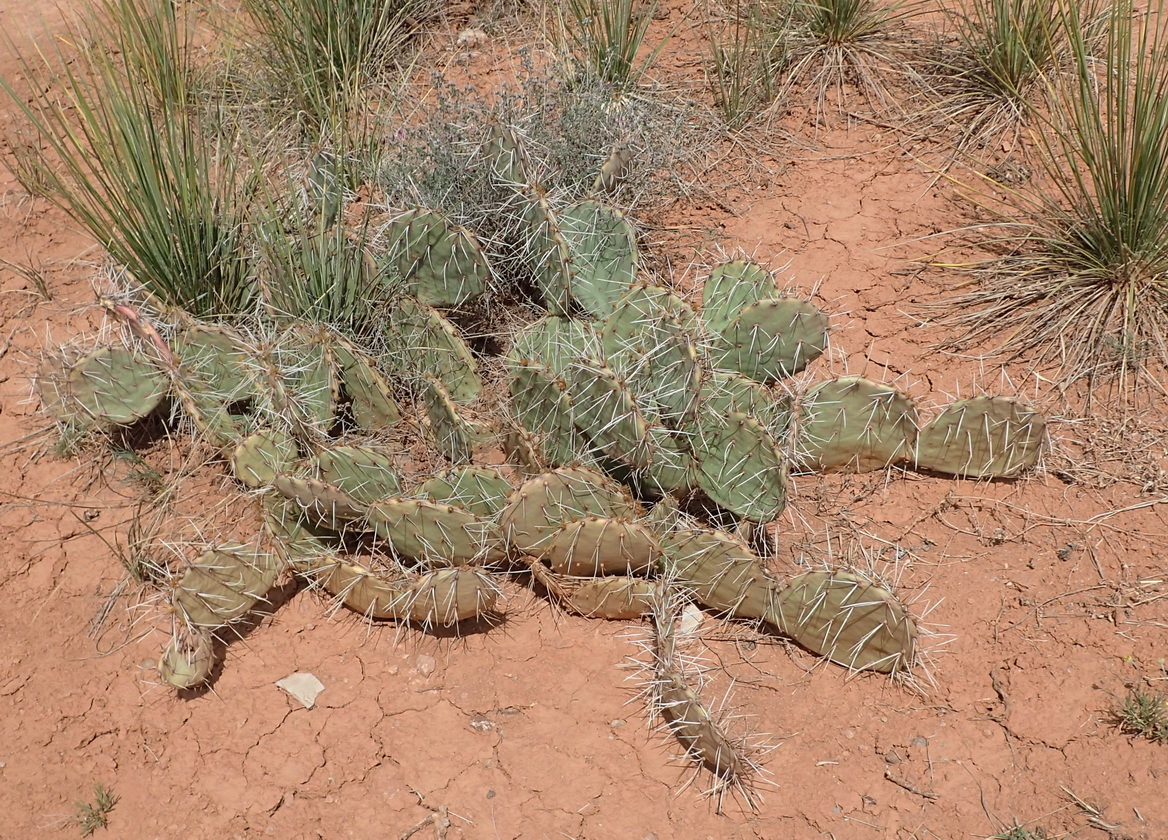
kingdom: Plantae
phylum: Tracheophyta
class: Magnoliopsida
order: Caryophyllales
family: Cactaceae
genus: Opuntia
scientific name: Opuntia cymochila
